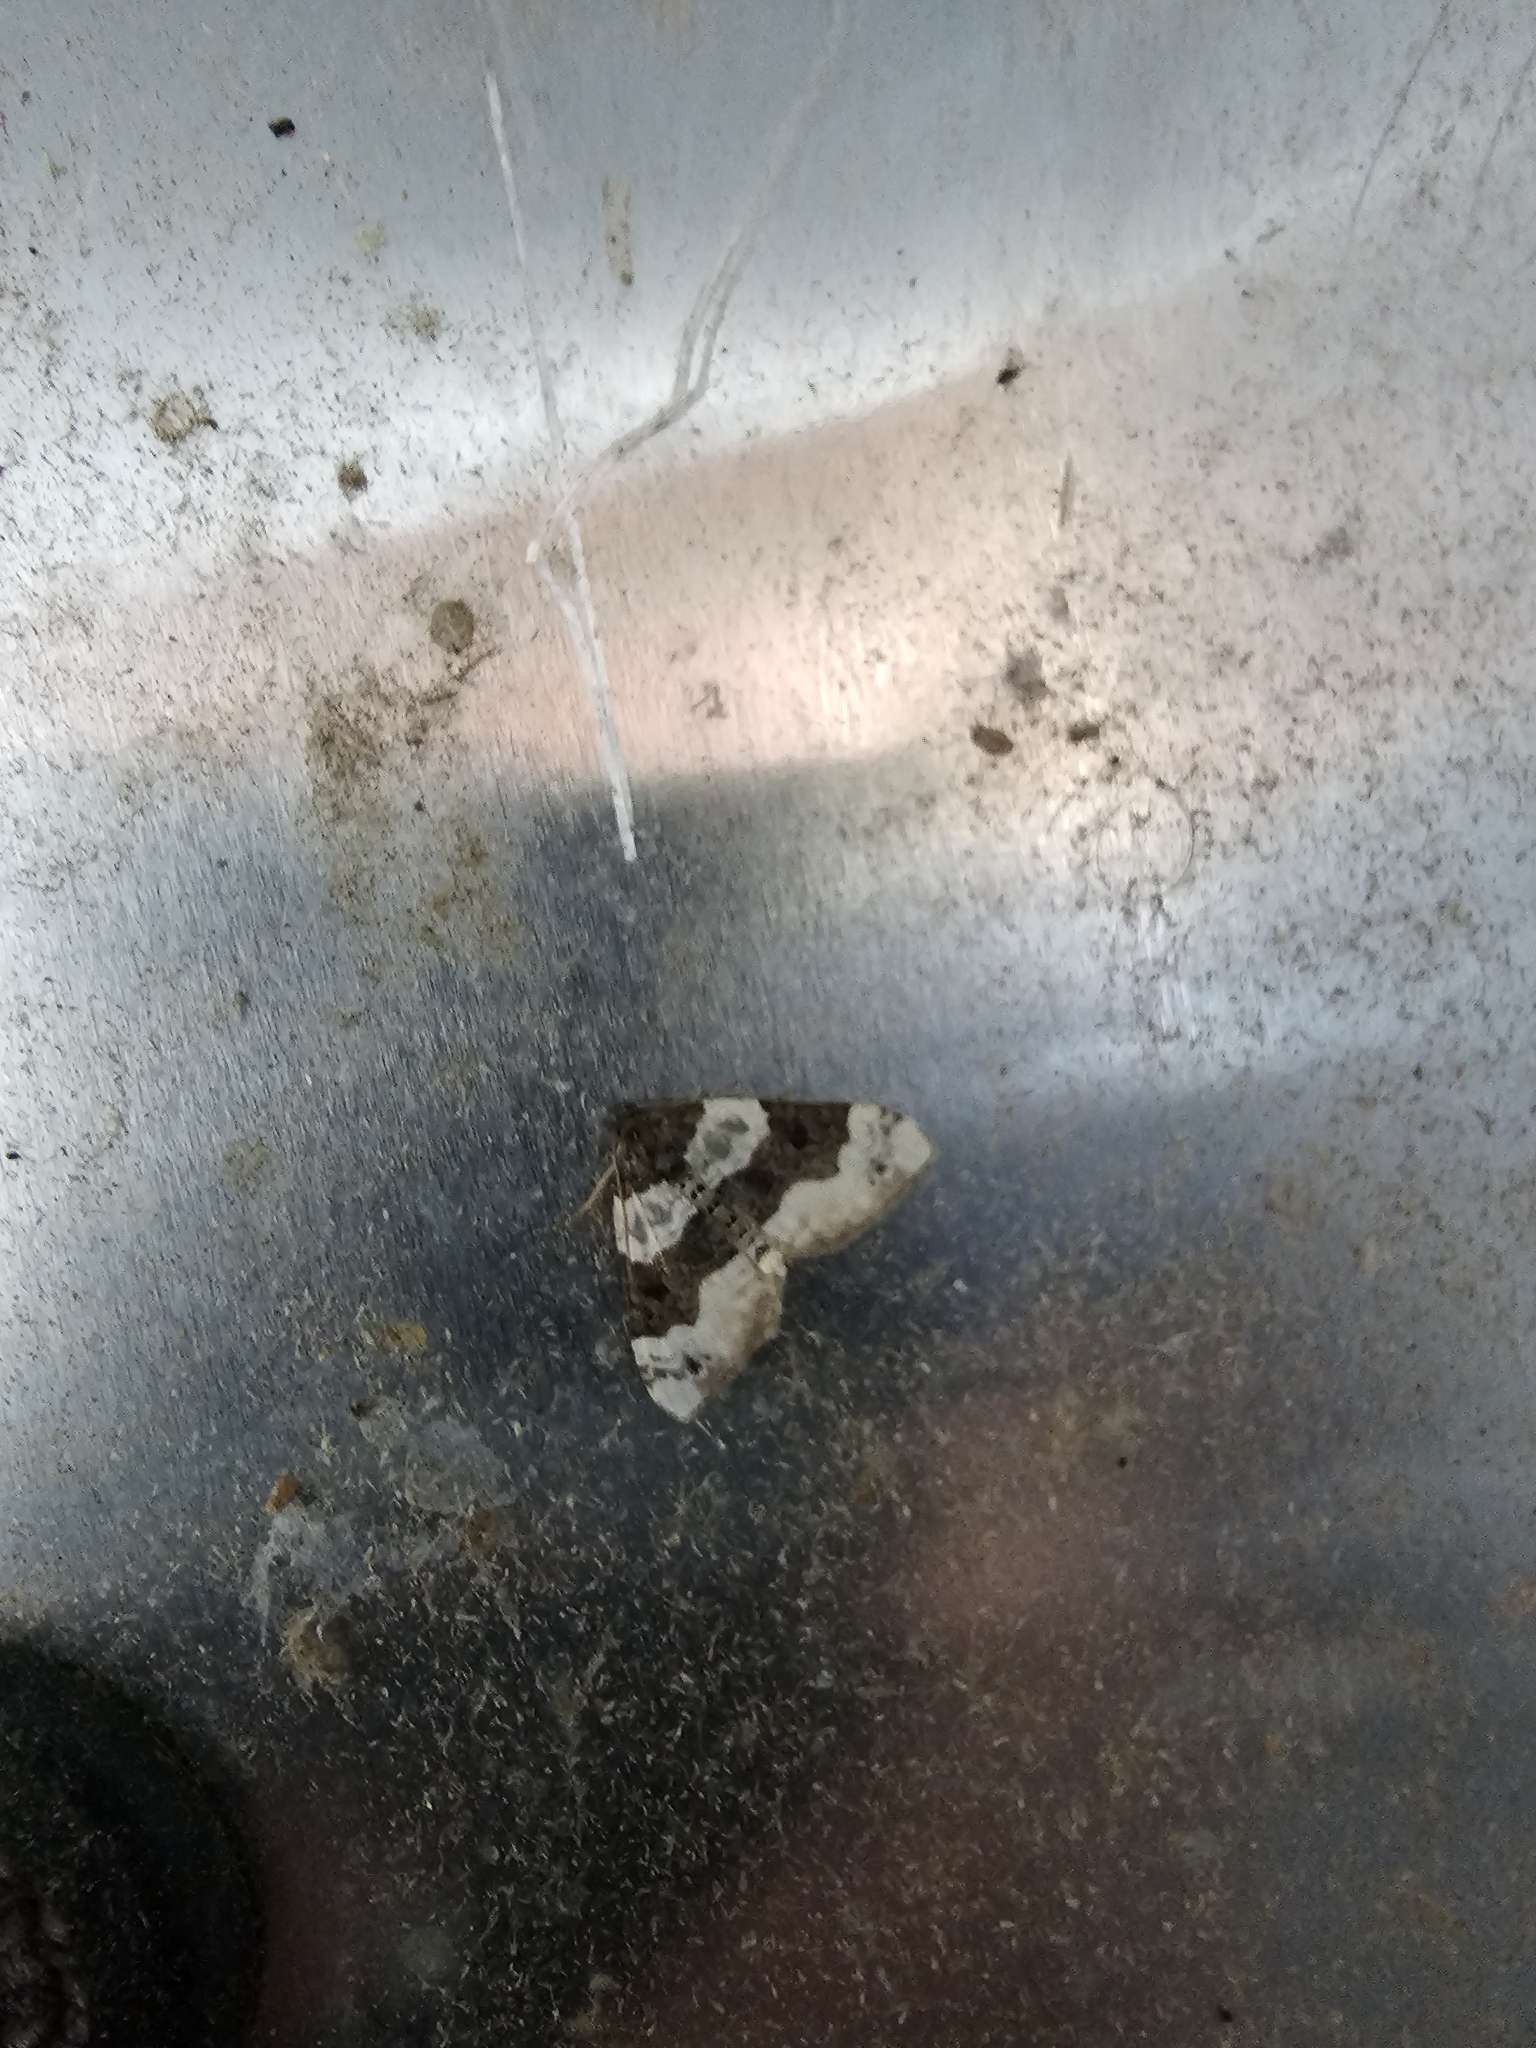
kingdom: Animalia
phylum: Arthropoda
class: Insecta
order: Lepidoptera
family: Geometridae
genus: Cosmorhoe
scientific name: Cosmorhoe ocellata
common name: Purple bar
